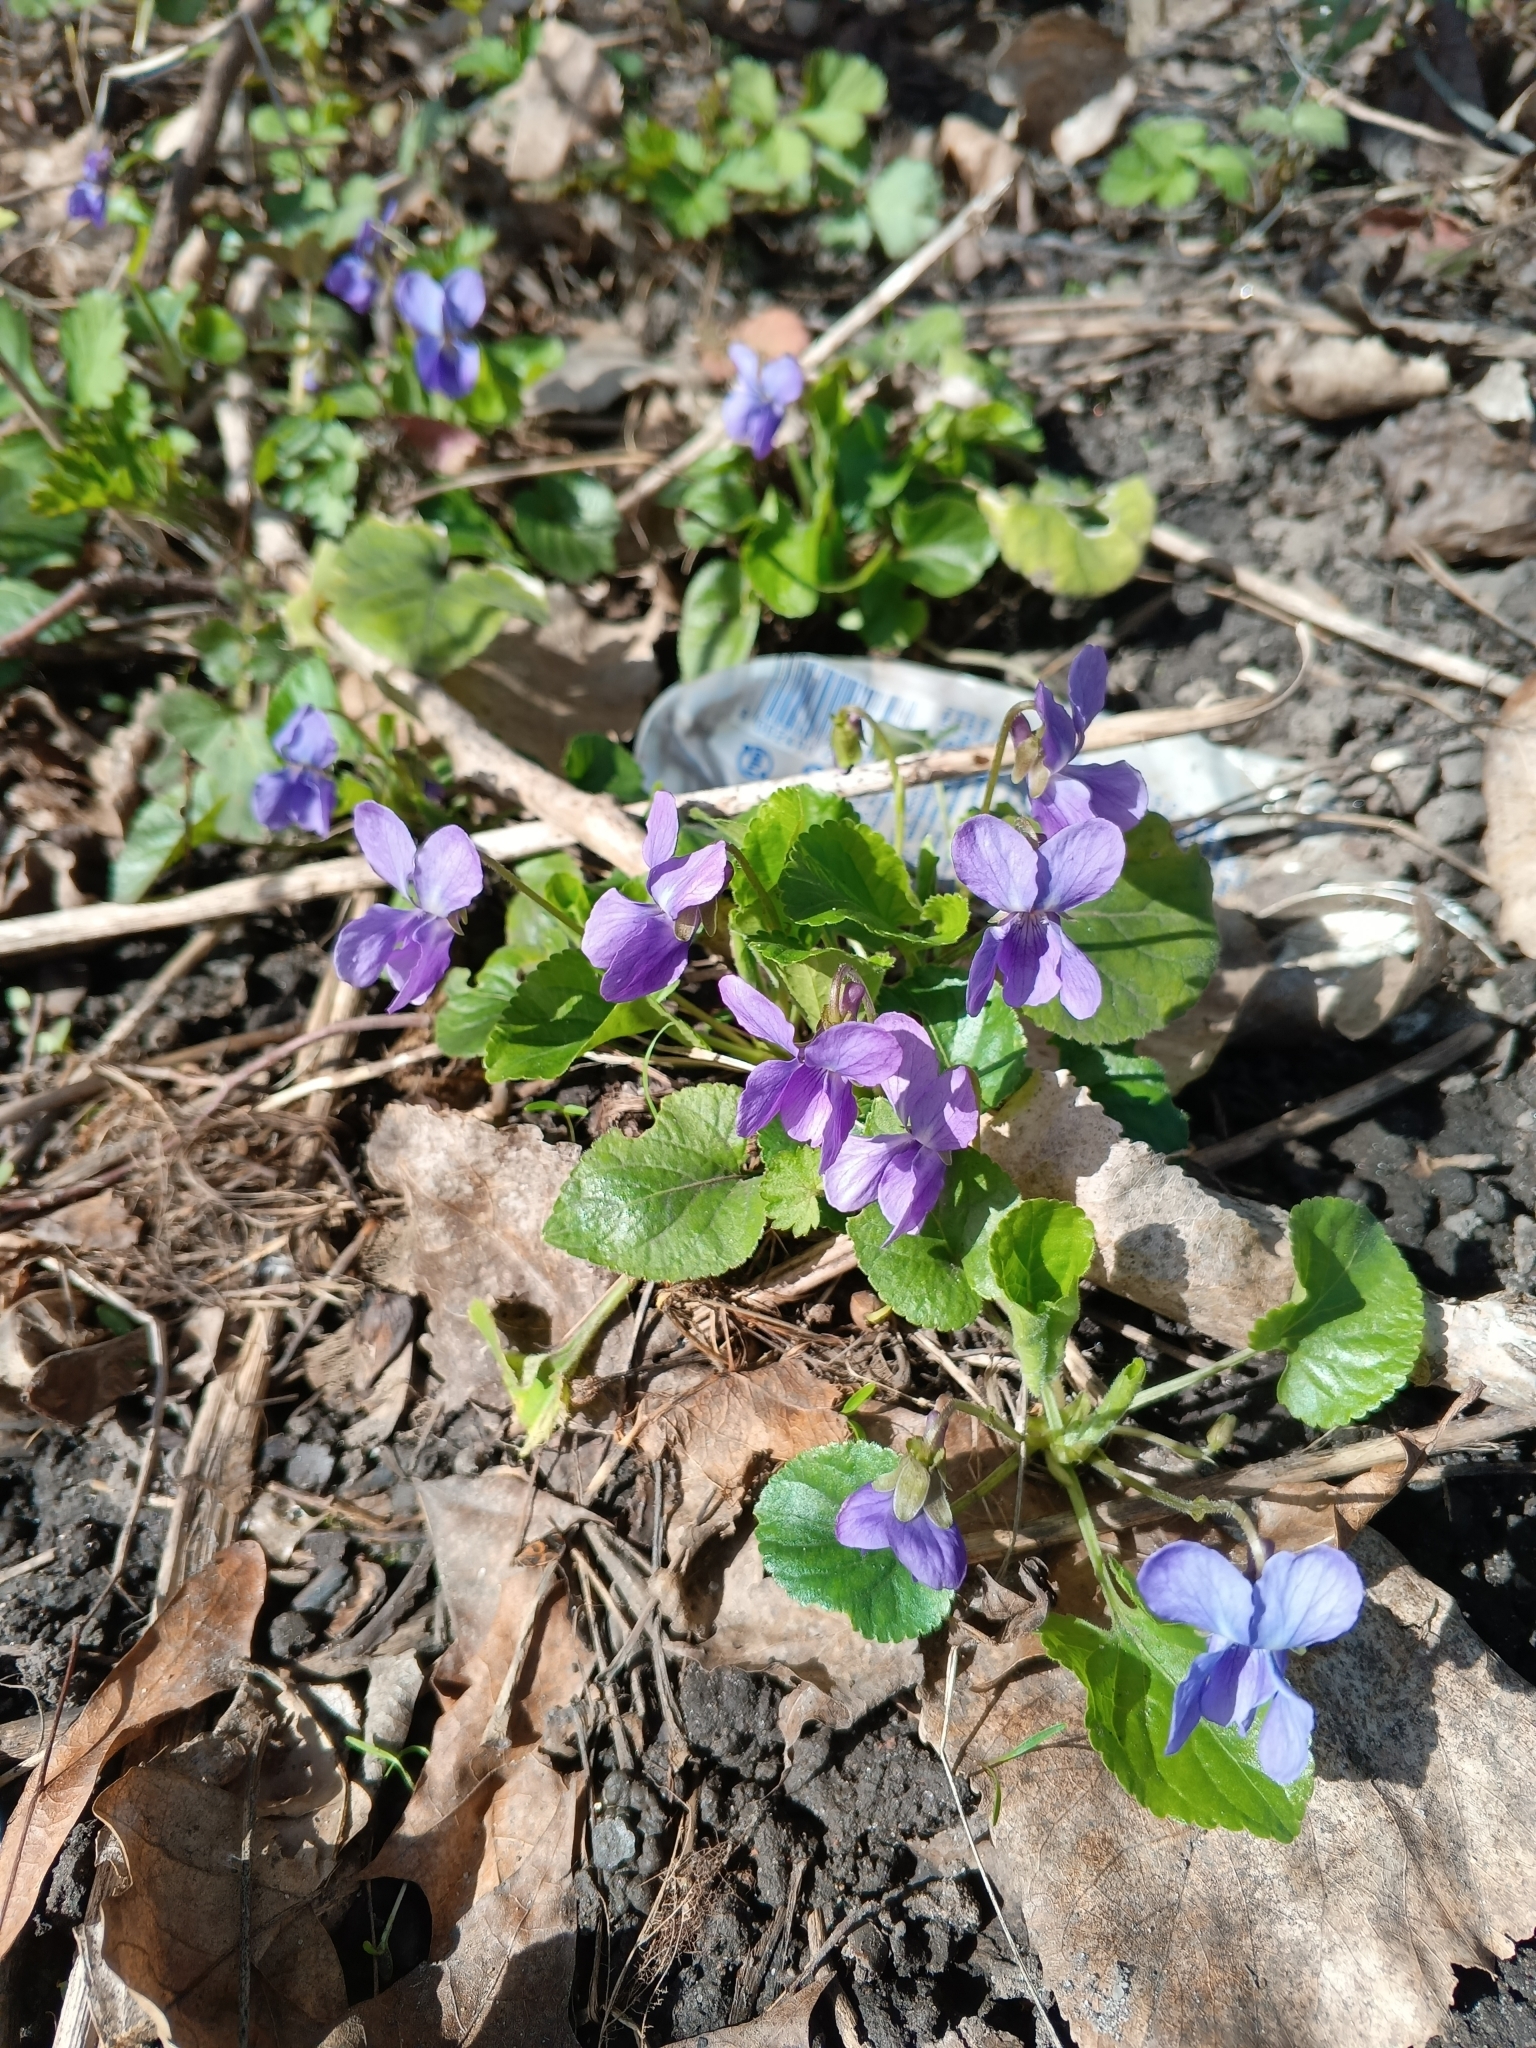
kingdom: Plantae
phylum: Tracheophyta
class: Magnoliopsida
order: Malpighiales
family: Violaceae
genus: Viola
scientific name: Viola odorata
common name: Sweet violet
